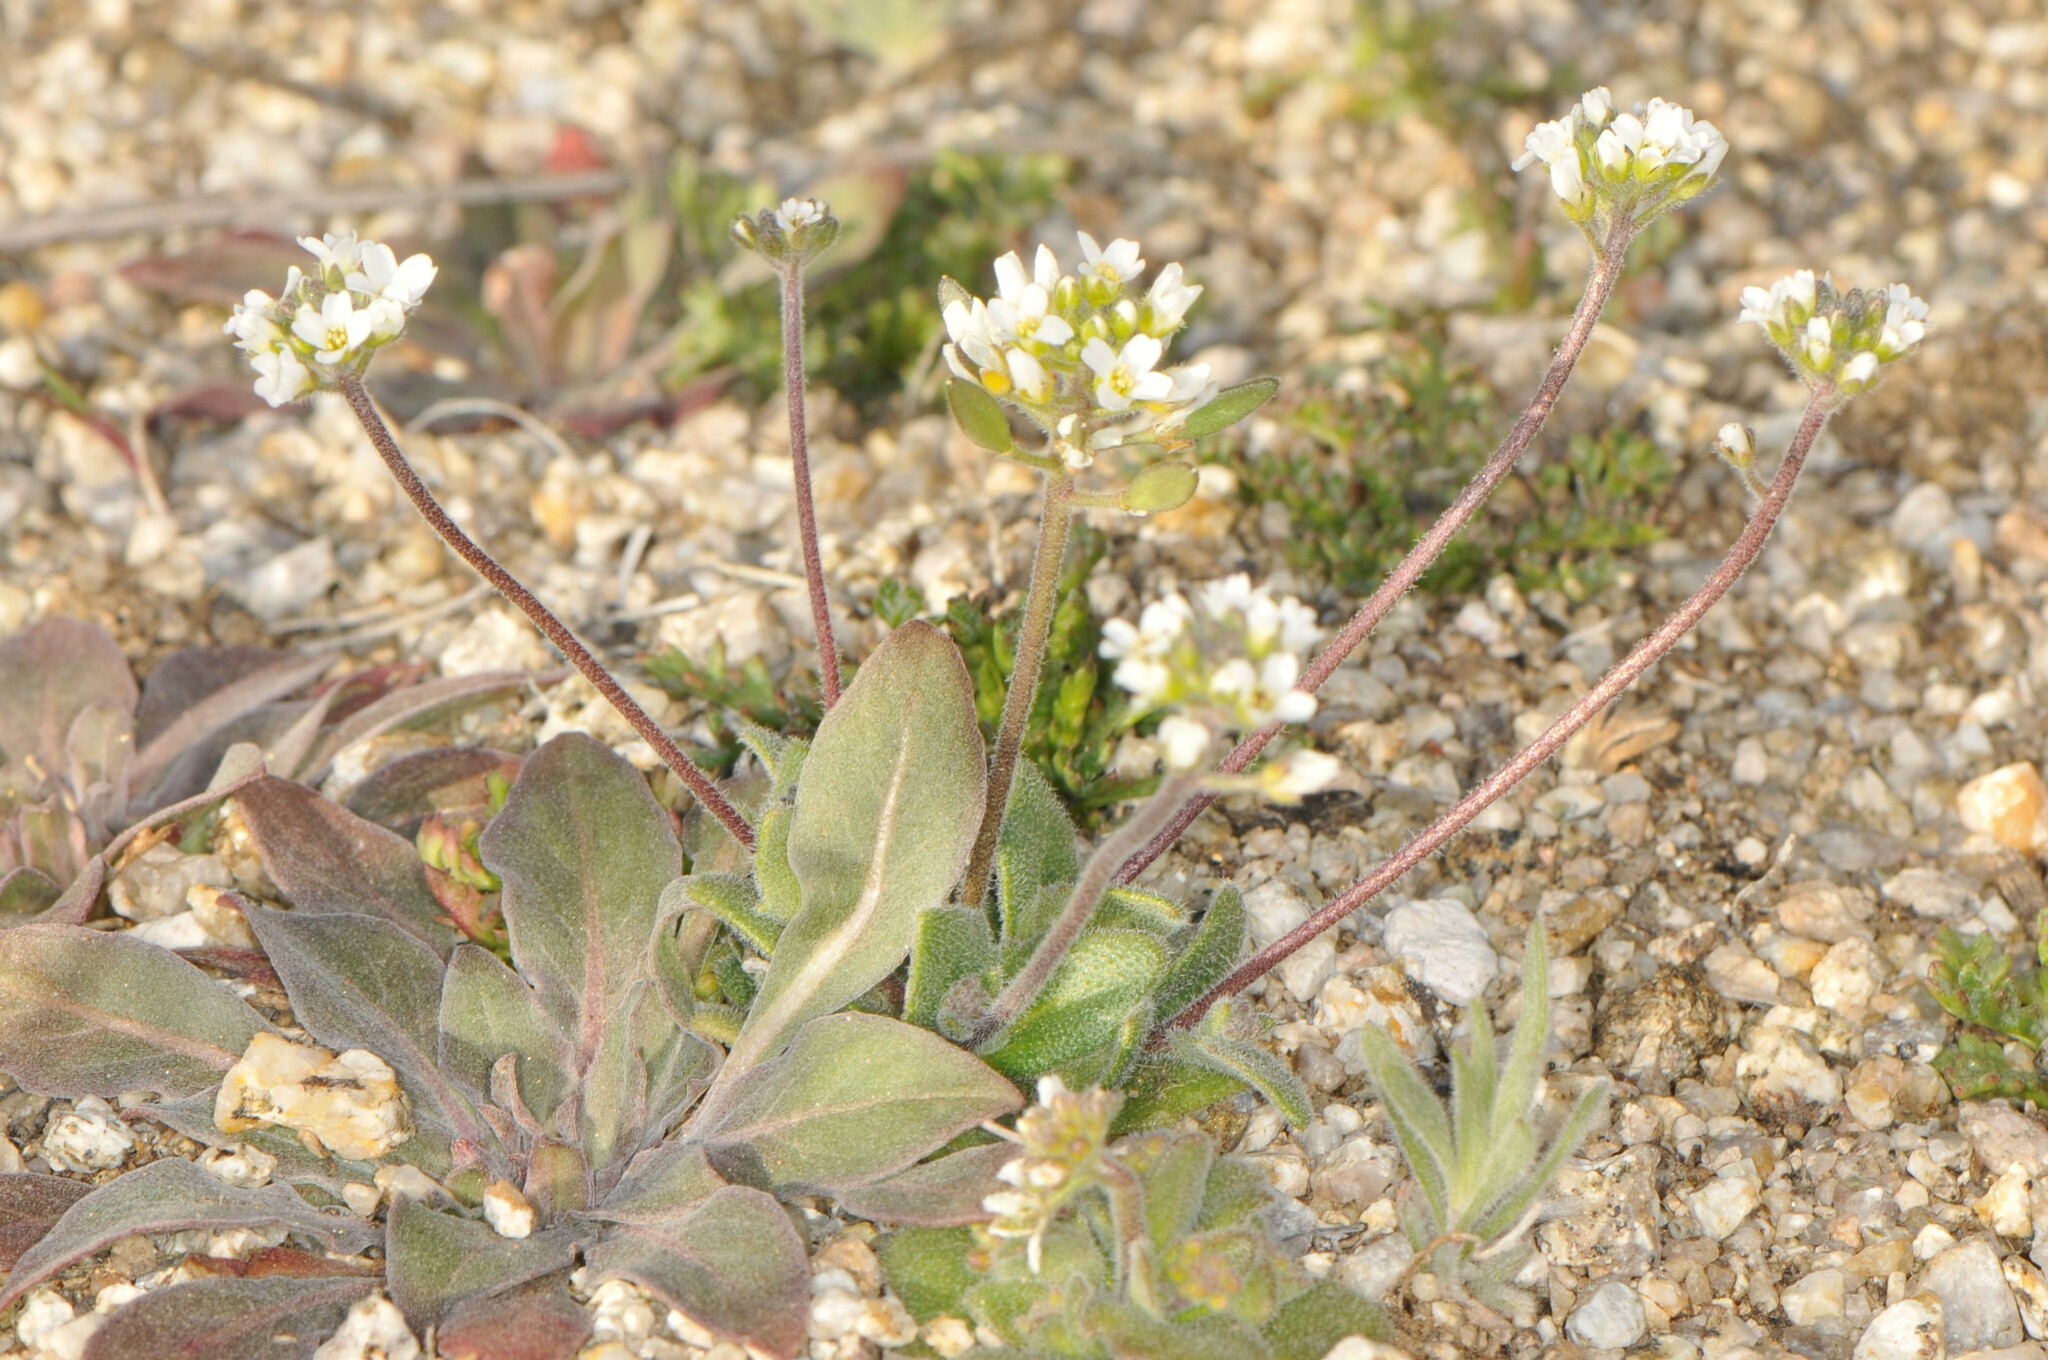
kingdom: Plantae
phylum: Tracheophyta
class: Magnoliopsida
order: Brassicales
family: Brassicaceae
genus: Tomostima
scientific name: Tomostima cuneifolia
